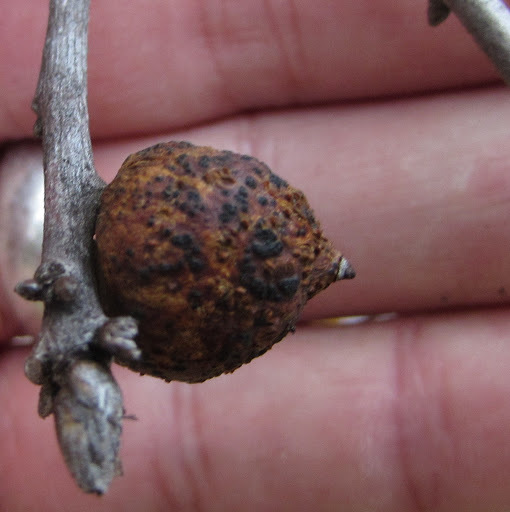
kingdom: Animalia
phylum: Arthropoda
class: Insecta
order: Hymenoptera
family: Cynipidae
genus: Amphibolips
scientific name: Amphibolips quercuspomiformis
